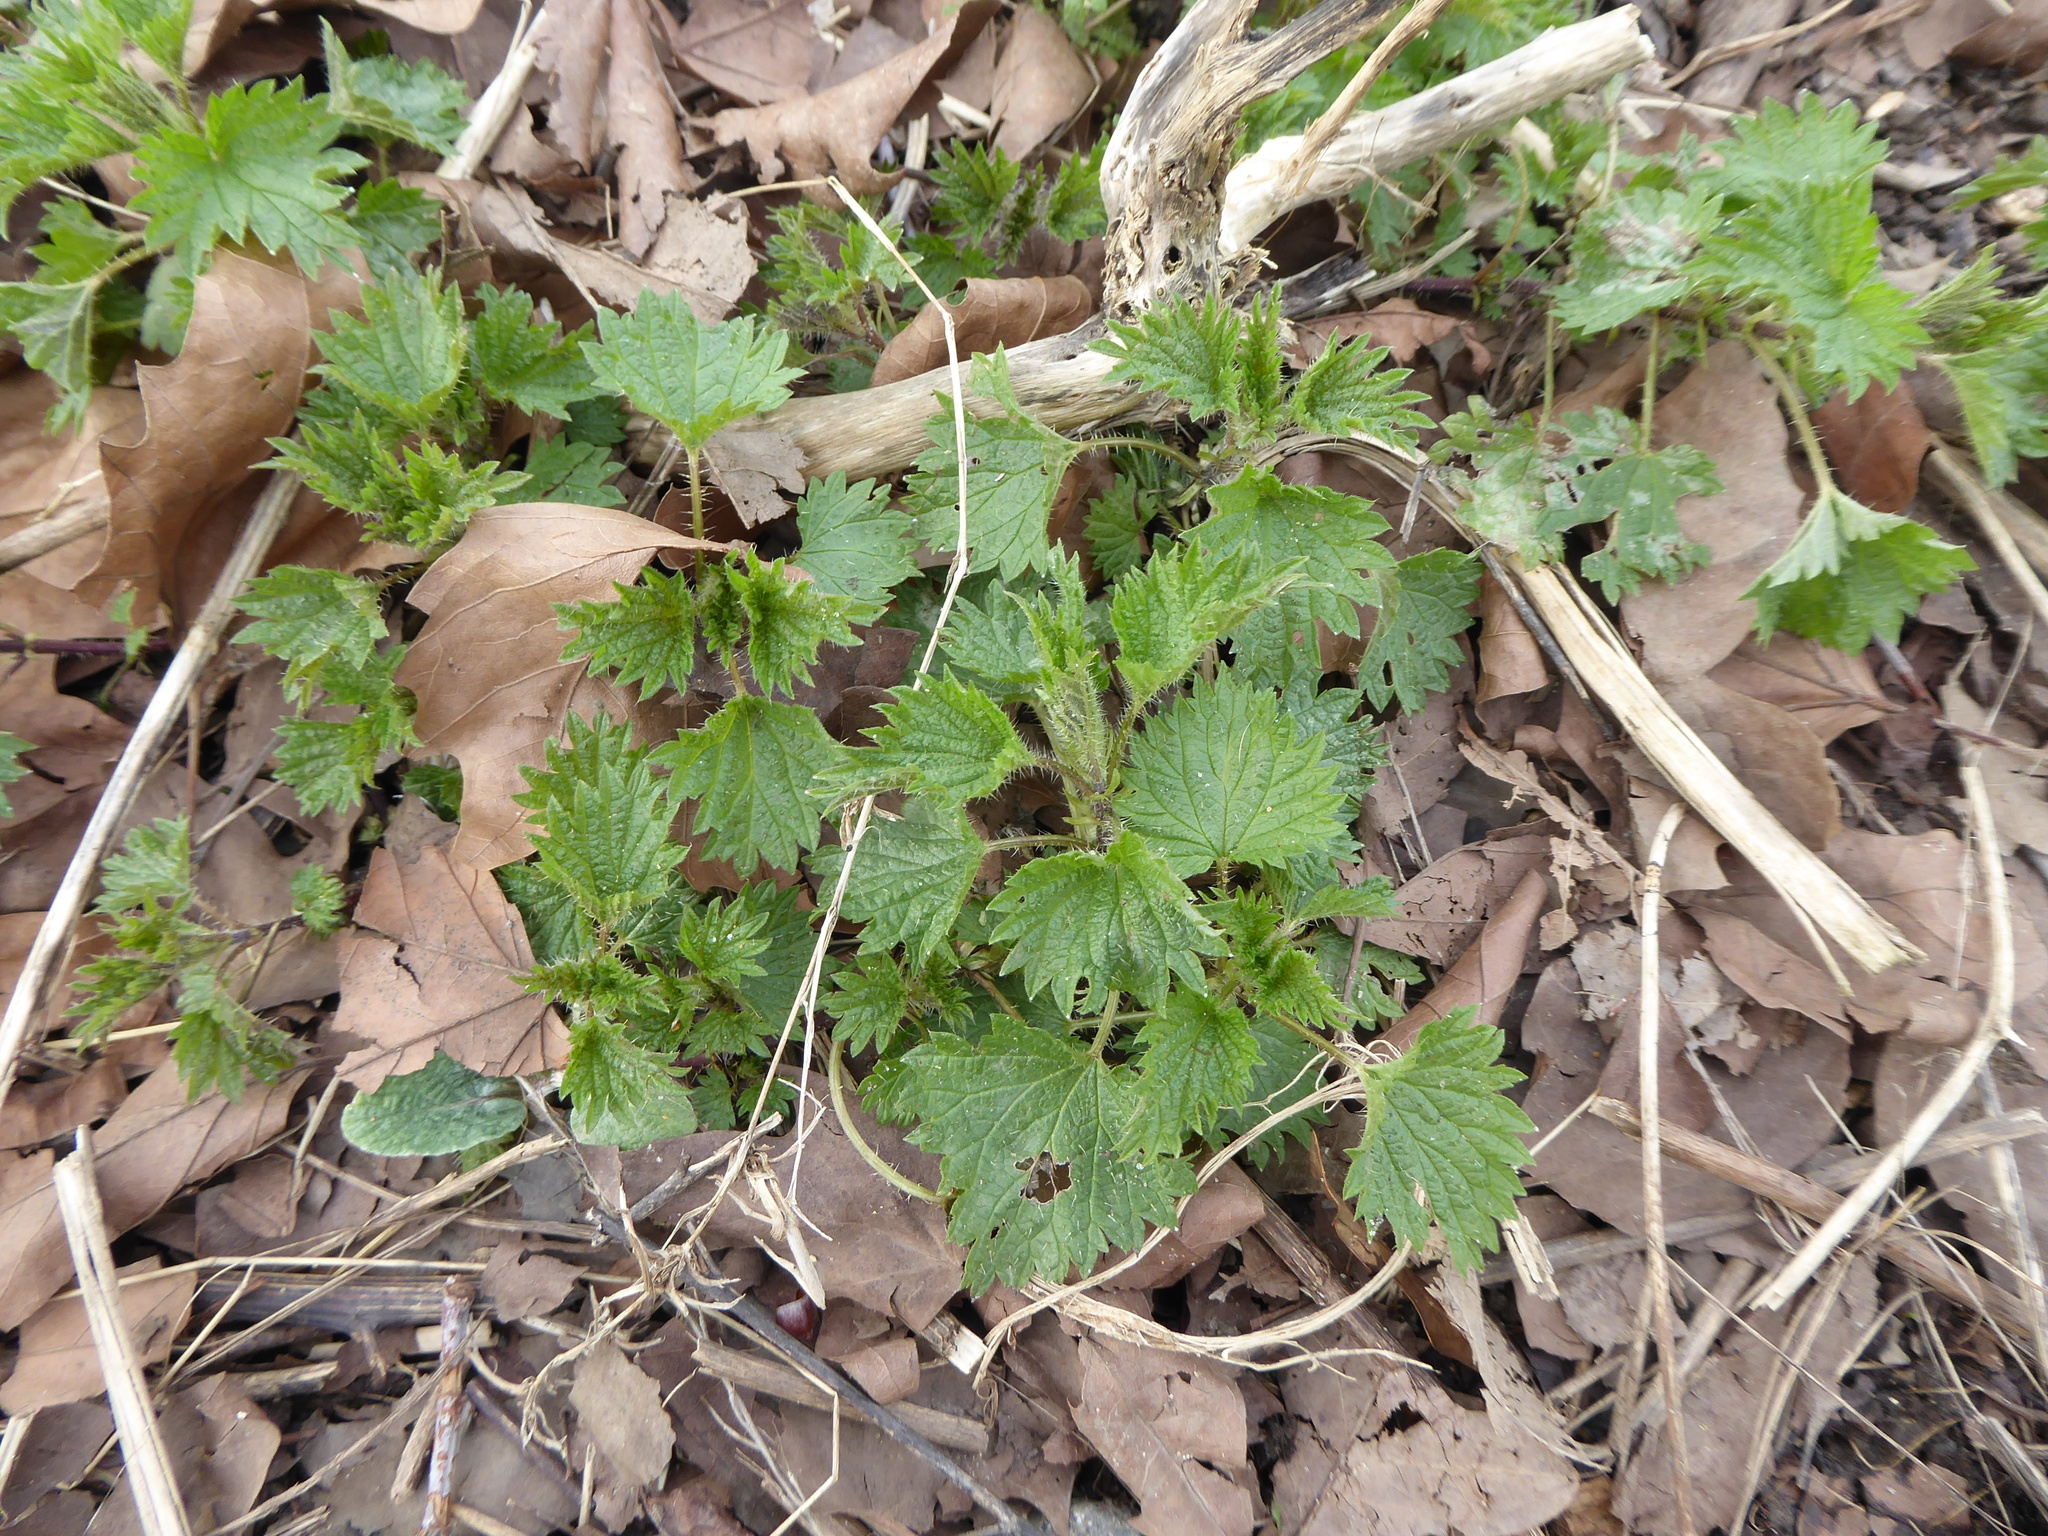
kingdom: Plantae
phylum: Tracheophyta
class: Magnoliopsida
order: Rosales
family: Urticaceae
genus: Urtica
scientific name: Urtica dioica
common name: Common nettle
